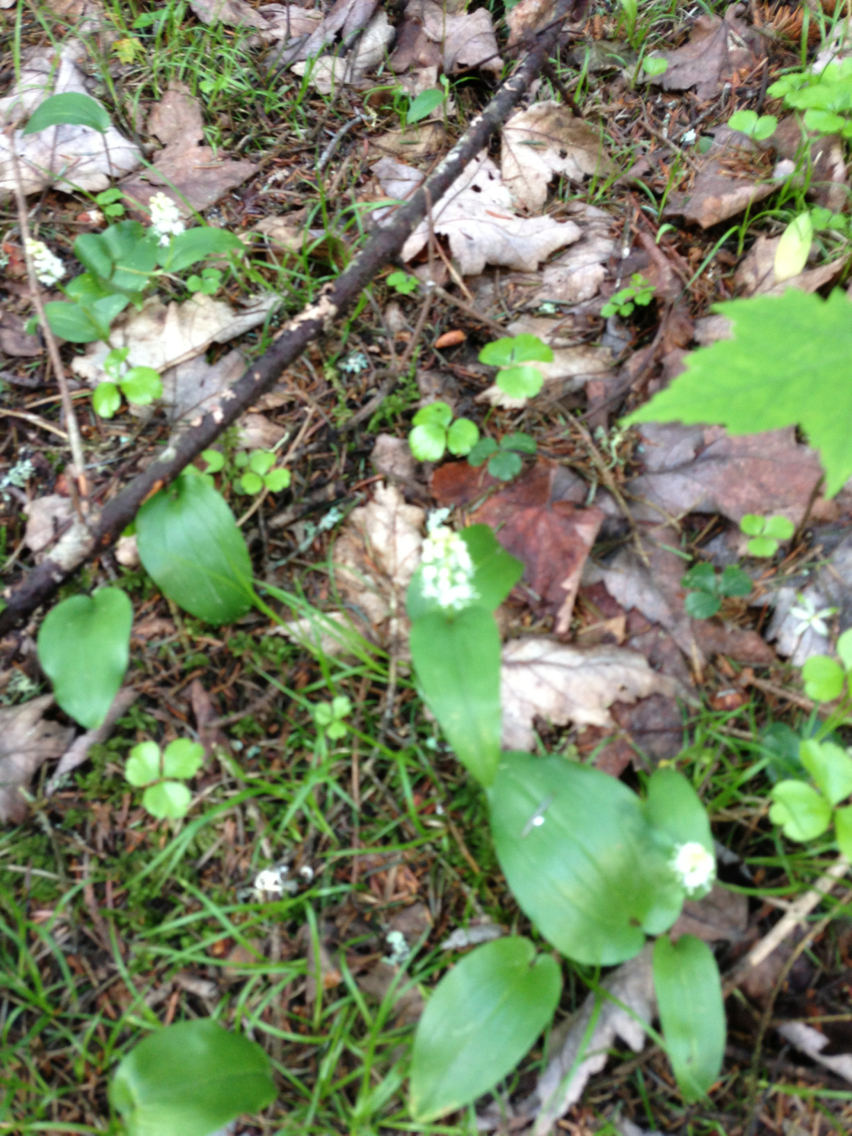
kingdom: Plantae
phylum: Tracheophyta
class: Liliopsida
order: Asparagales
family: Asparagaceae
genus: Maianthemum
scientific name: Maianthemum canadense
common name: False lily-of-the-valley
